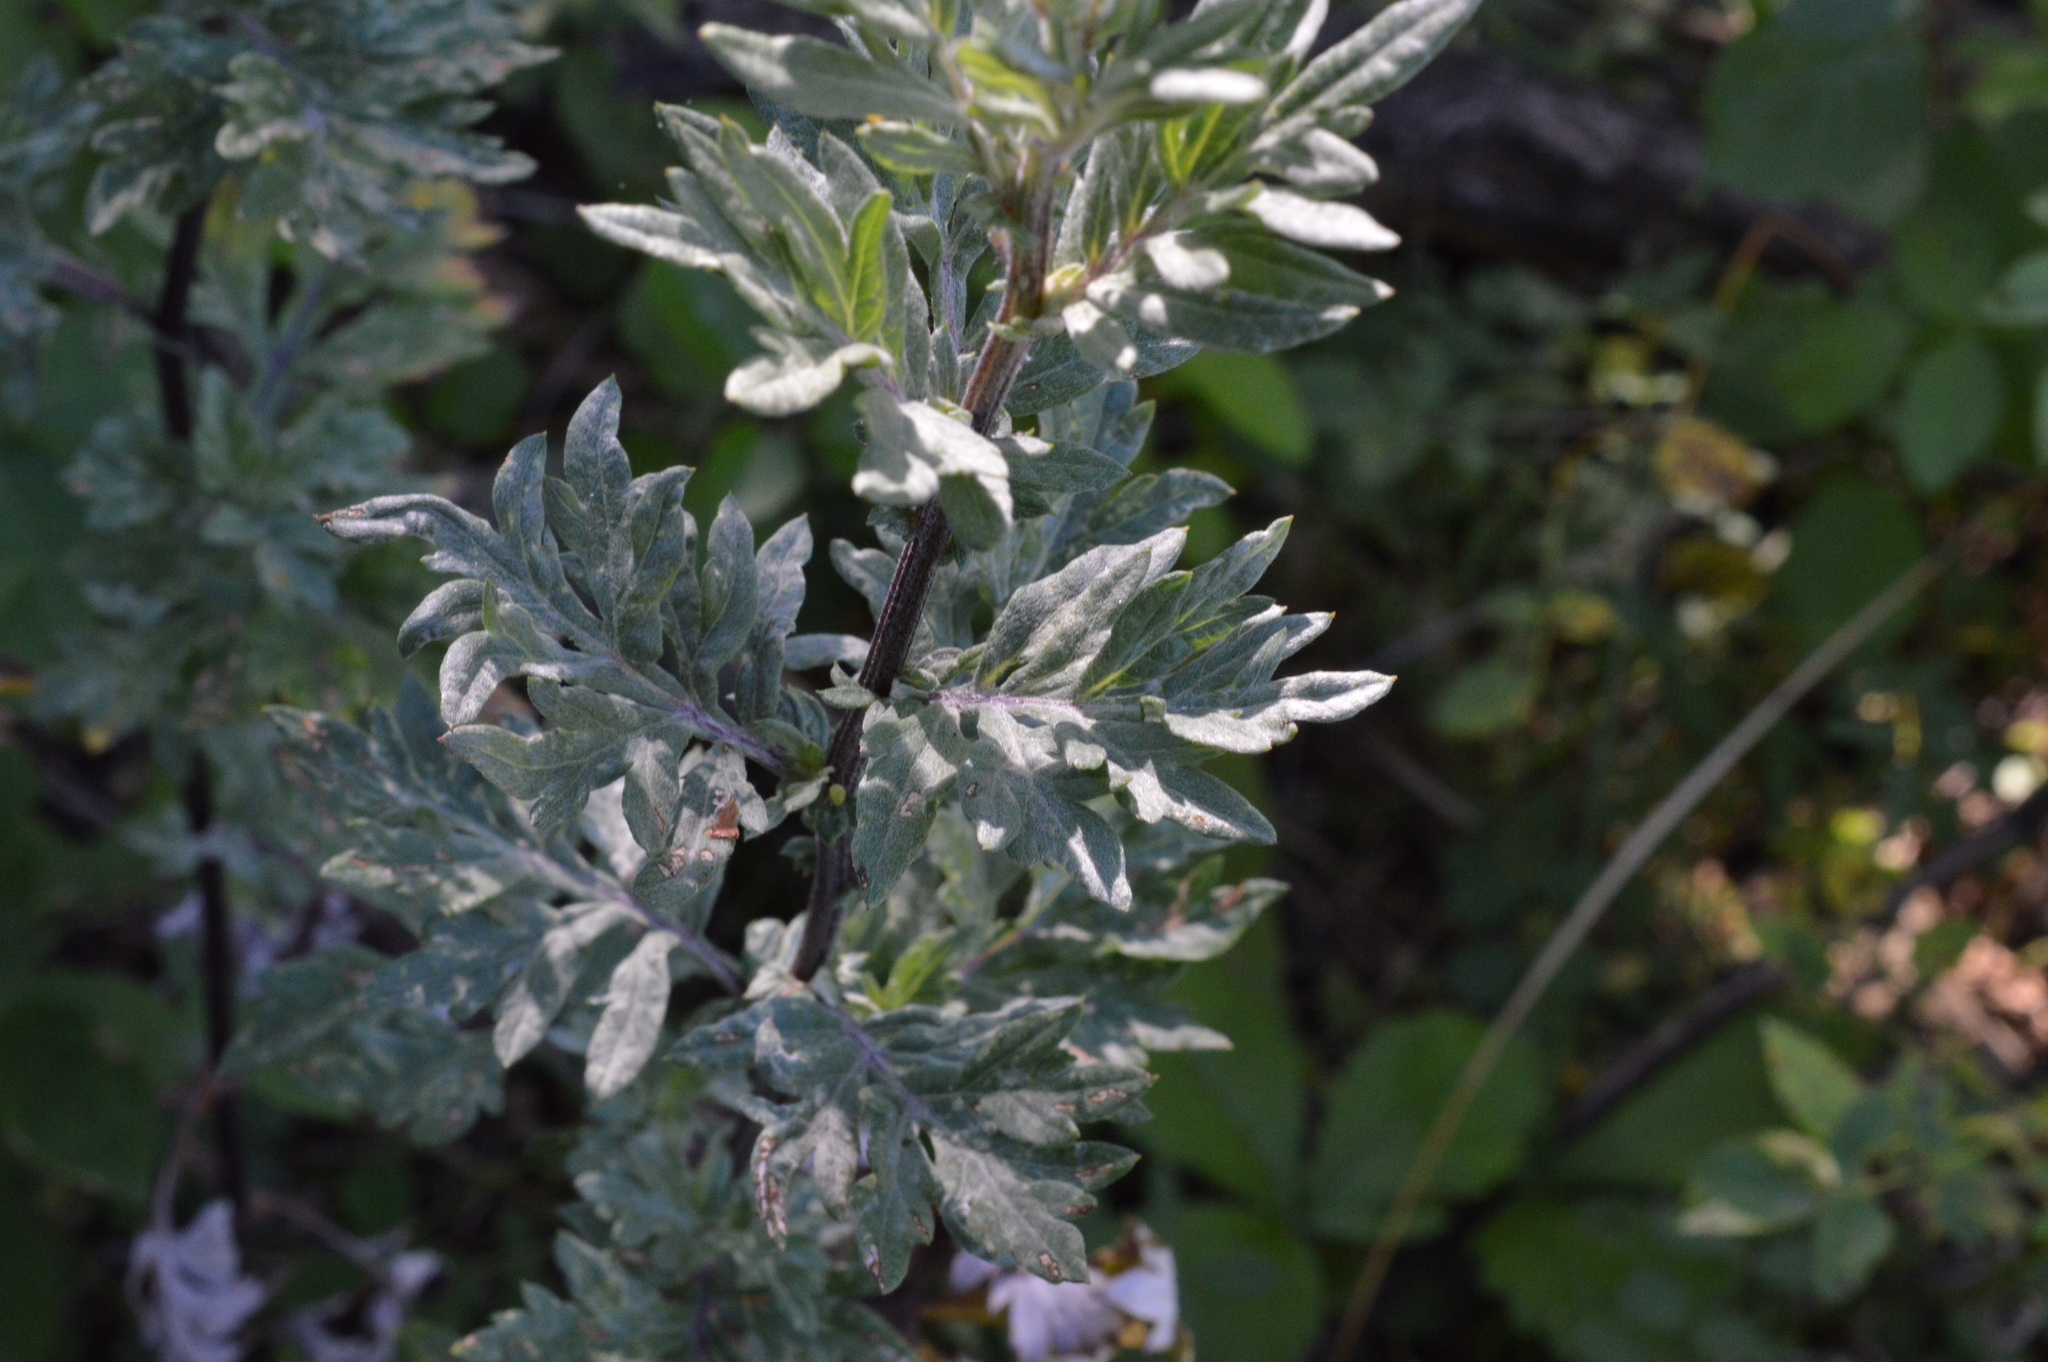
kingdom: Plantae
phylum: Tracheophyta
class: Magnoliopsida
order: Asterales
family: Asteraceae
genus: Artemisia
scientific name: Artemisia vulgaris
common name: Mugwort
